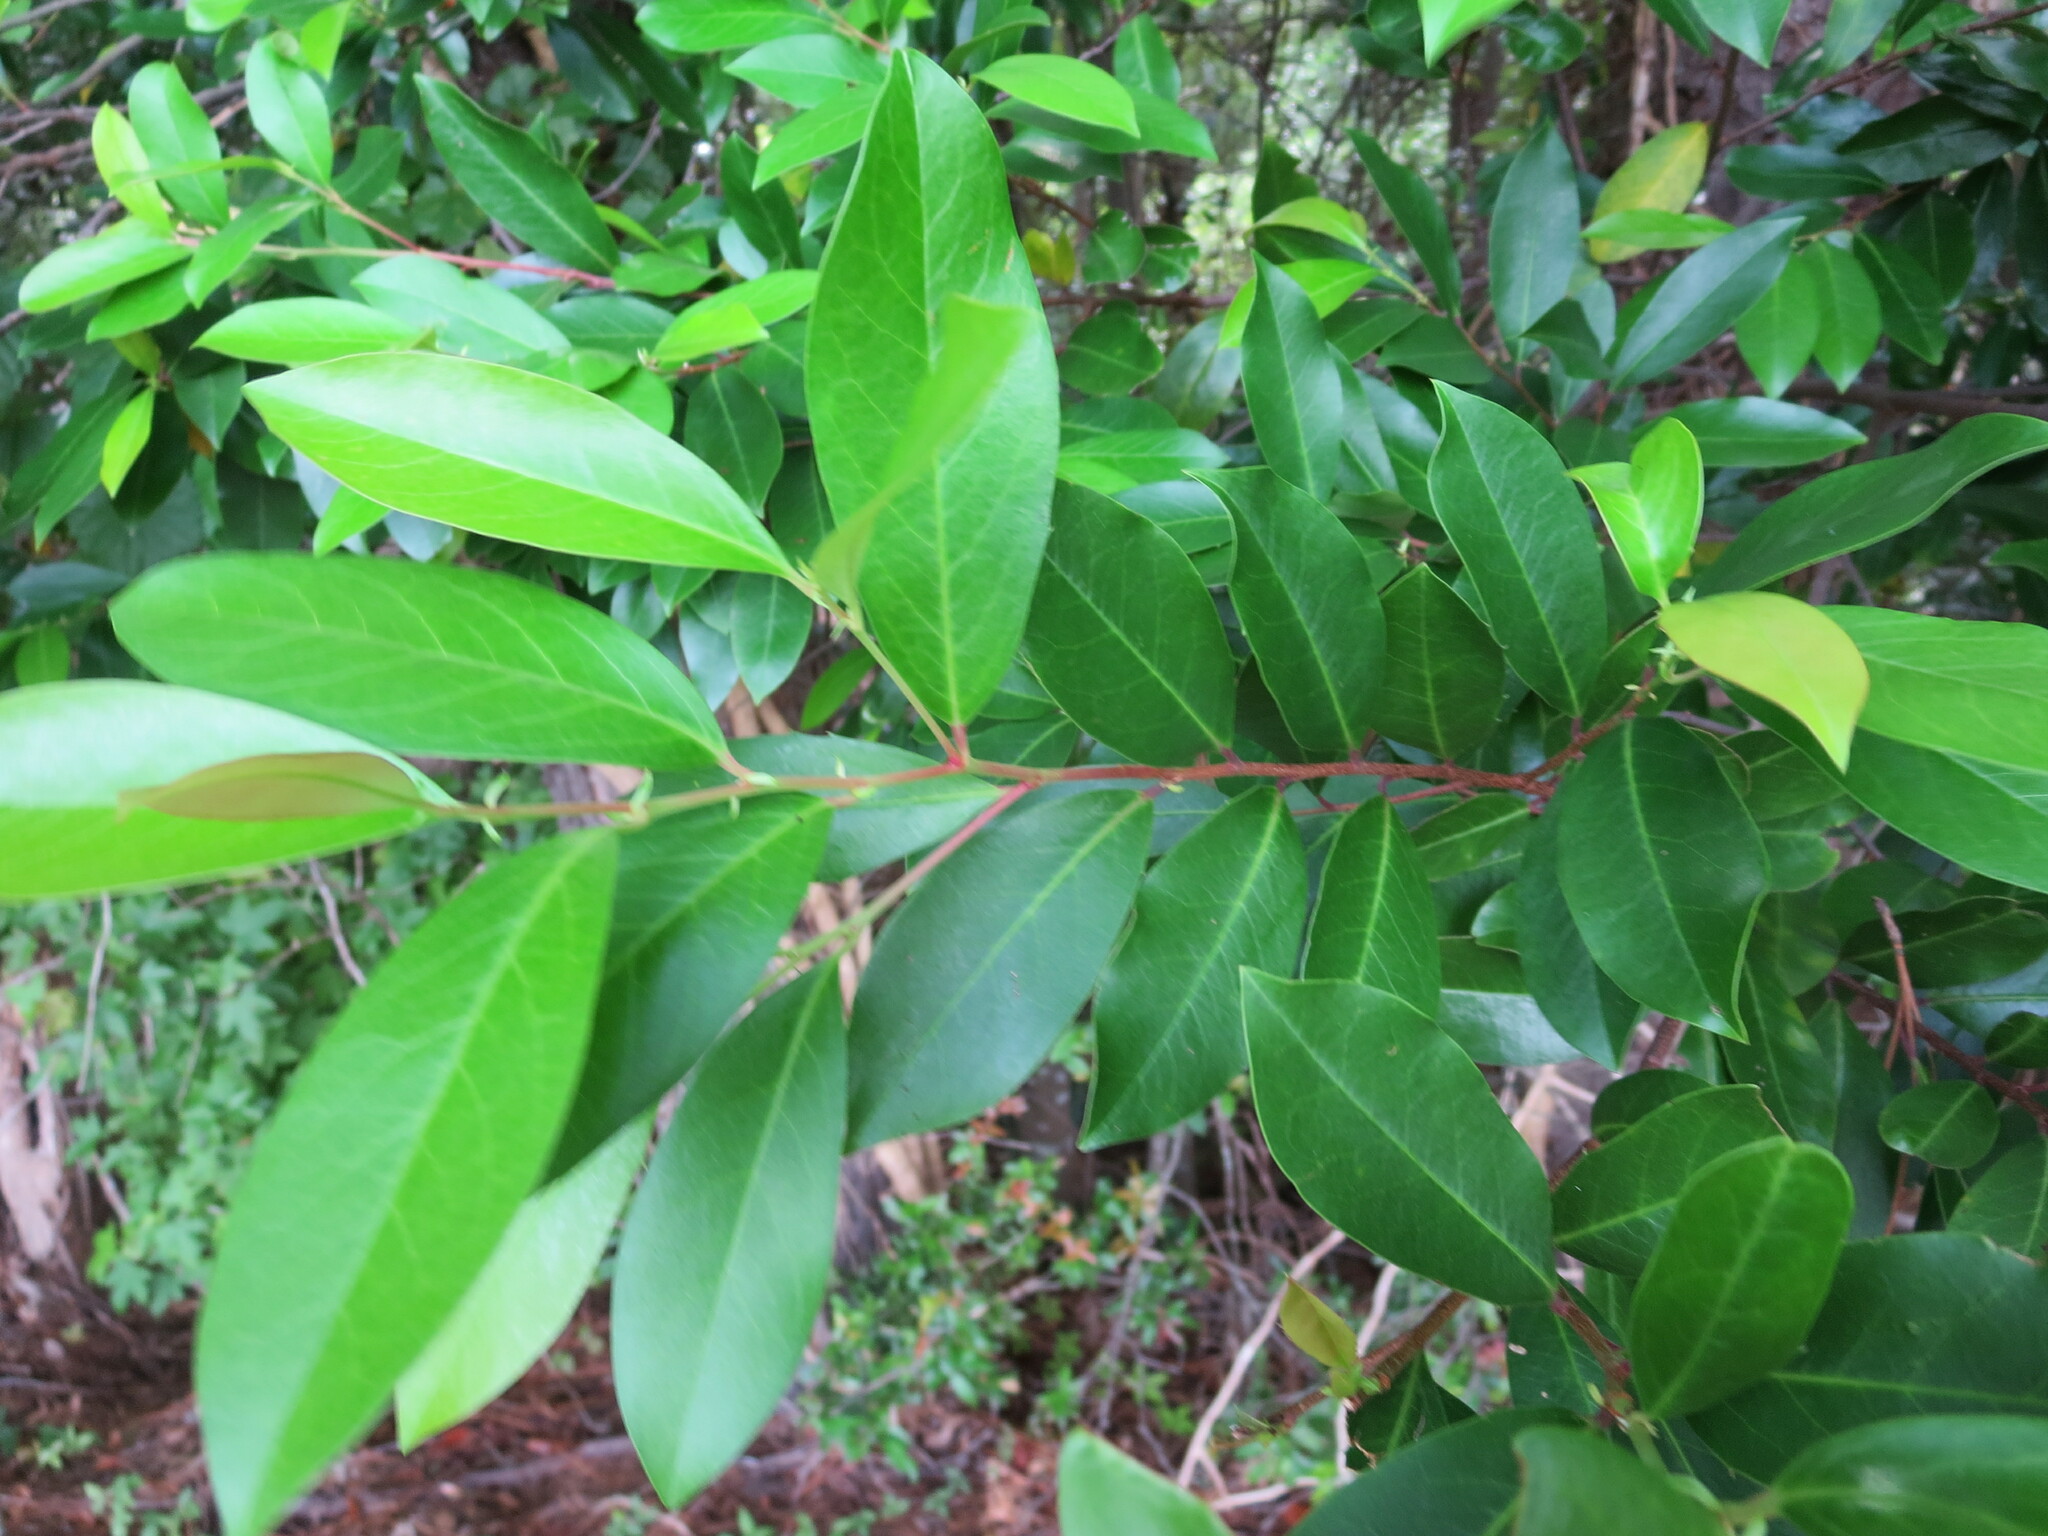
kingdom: Plantae
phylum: Tracheophyta
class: Magnoliopsida
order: Rosales
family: Rosaceae
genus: Prunus
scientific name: Prunus caroliniana
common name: Carolina laurel cherry
